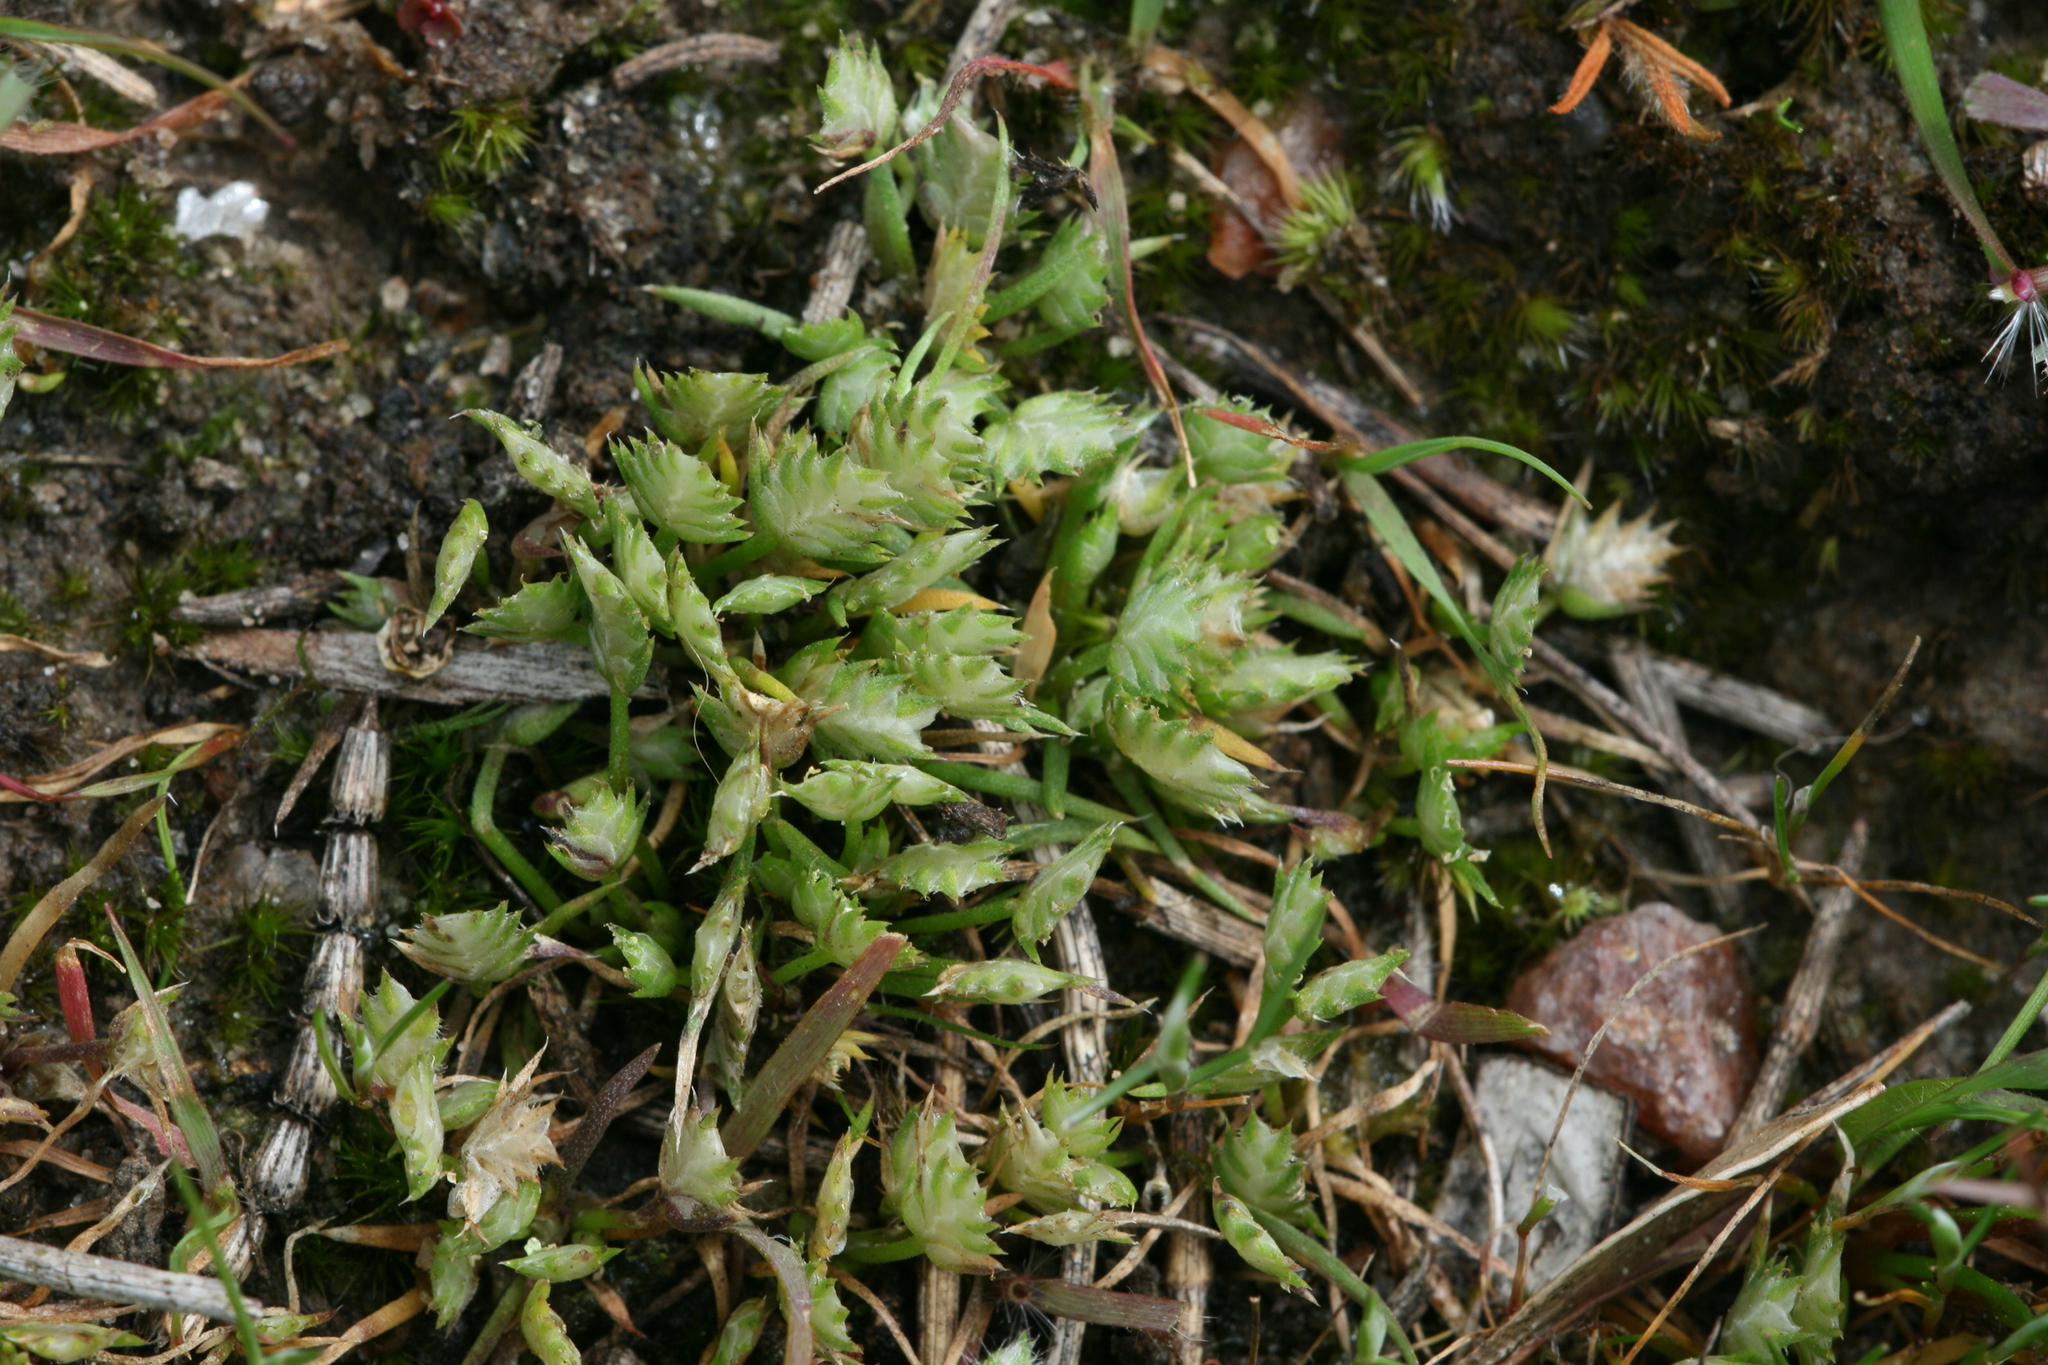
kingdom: Plantae
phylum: Tracheophyta
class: Liliopsida
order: Poales
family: Restionaceae
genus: Aphelia
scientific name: Aphelia pumilio
